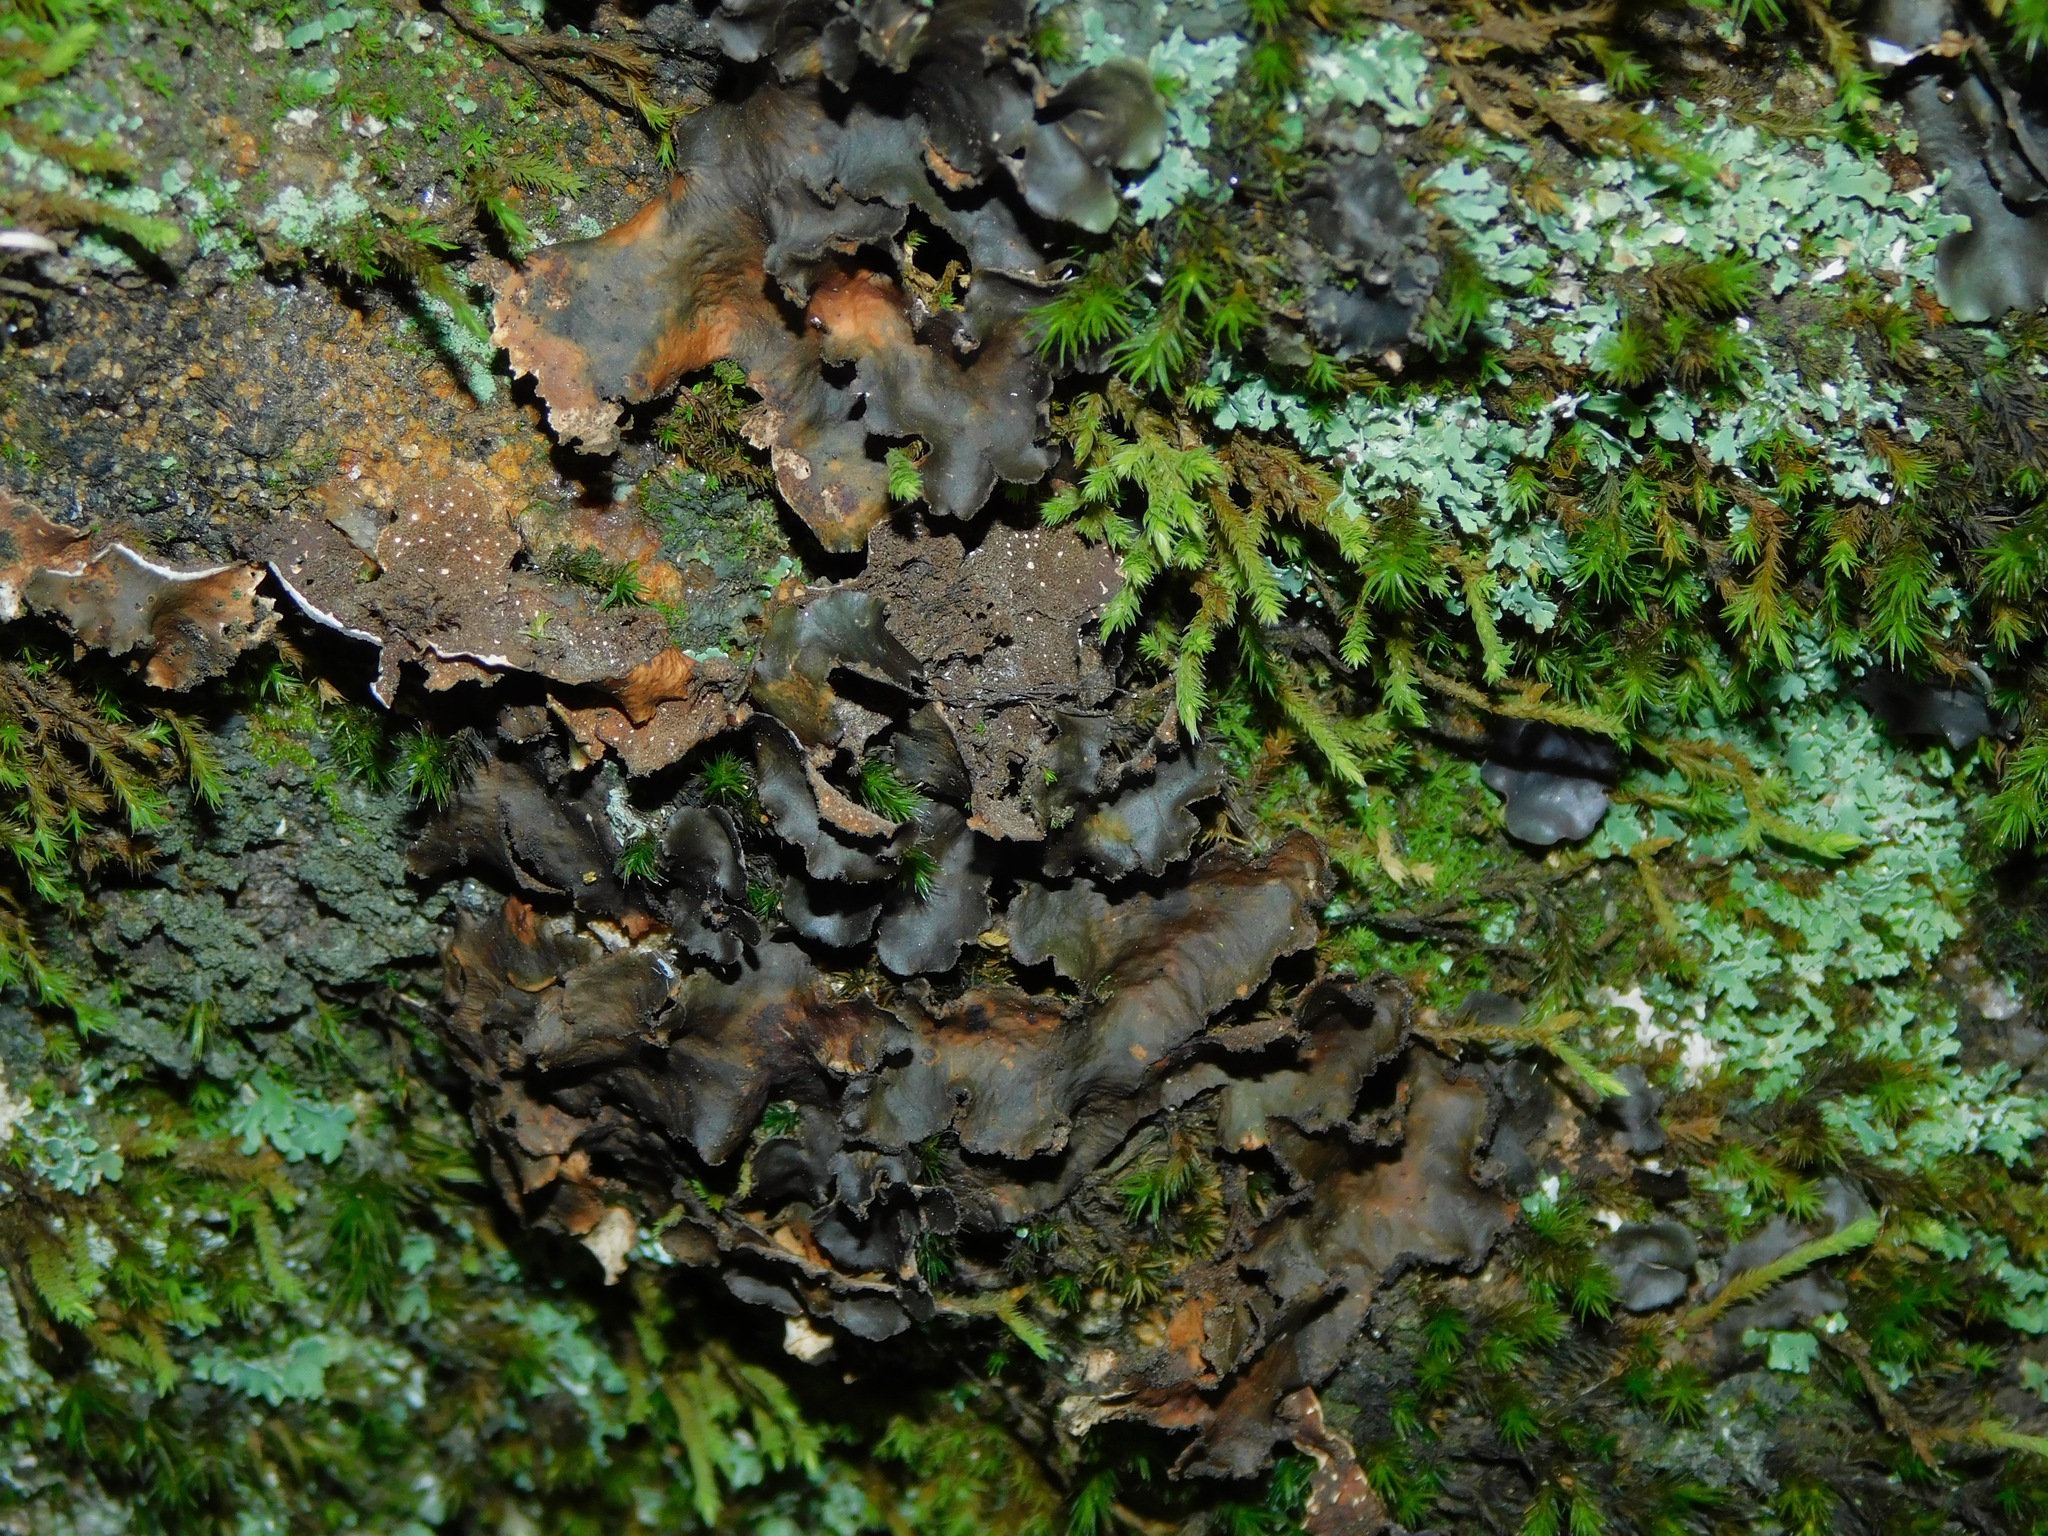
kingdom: Fungi
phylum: Ascomycota
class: Lecanoromycetes
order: Peltigerales
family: Lobariaceae
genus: Sticta
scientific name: Sticta beauvoisii
